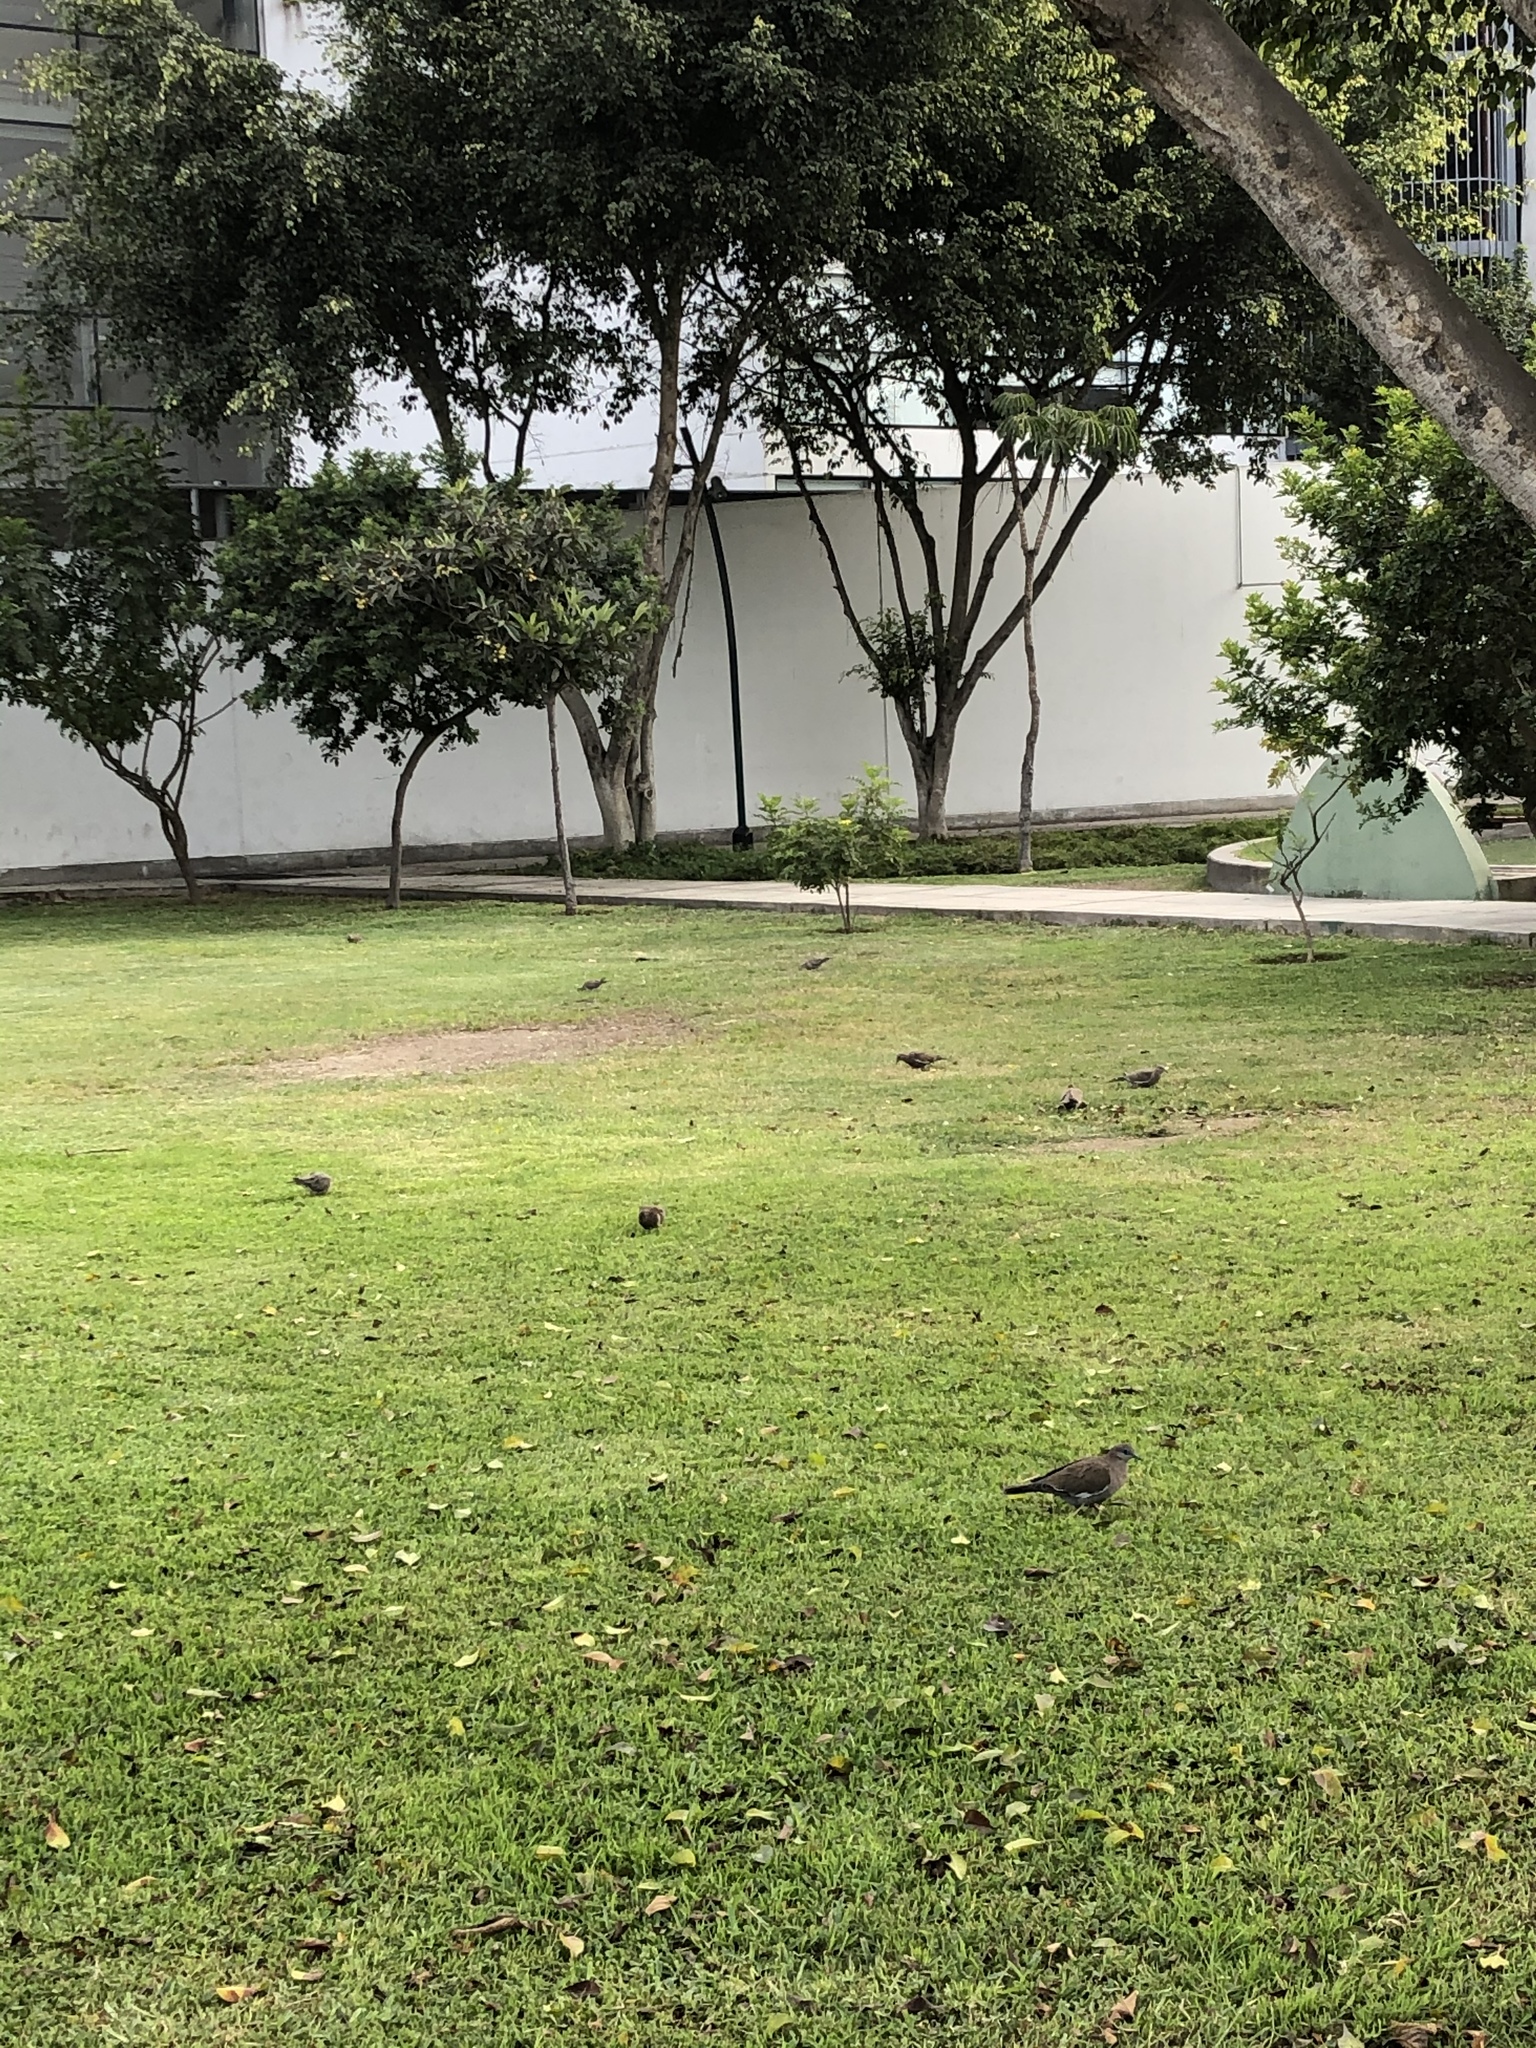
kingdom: Animalia
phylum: Chordata
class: Aves
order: Columbiformes
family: Columbidae
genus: Zenaida
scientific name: Zenaida meloda
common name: West peruvian dove
